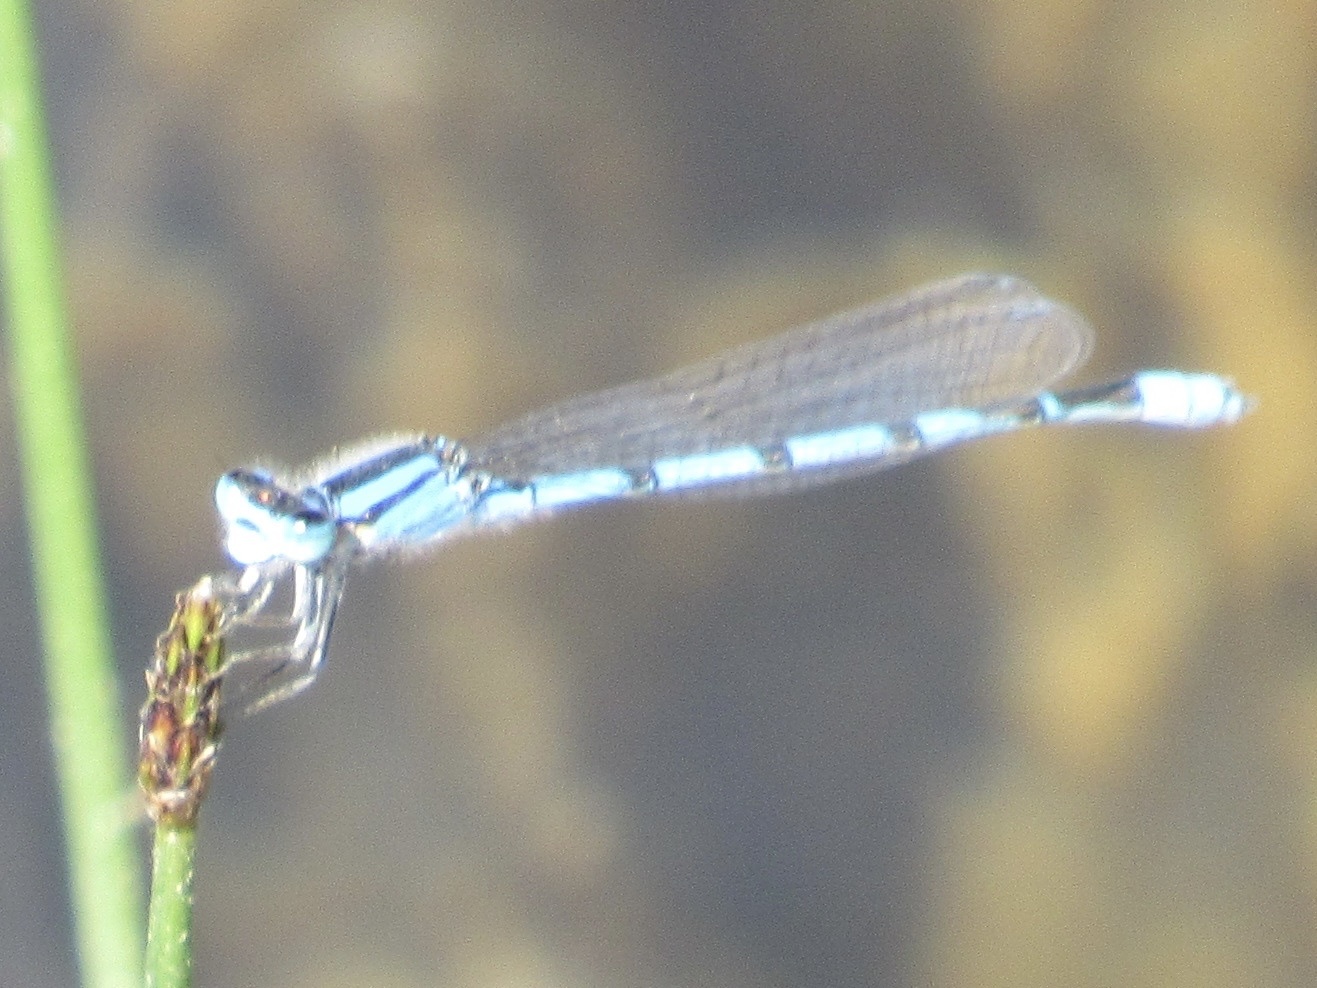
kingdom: Animalia
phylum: Arthropoda
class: Insecta
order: Odonata
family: Coenagrionidae
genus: Enallagma
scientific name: Enallagma civile
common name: Damselfly
